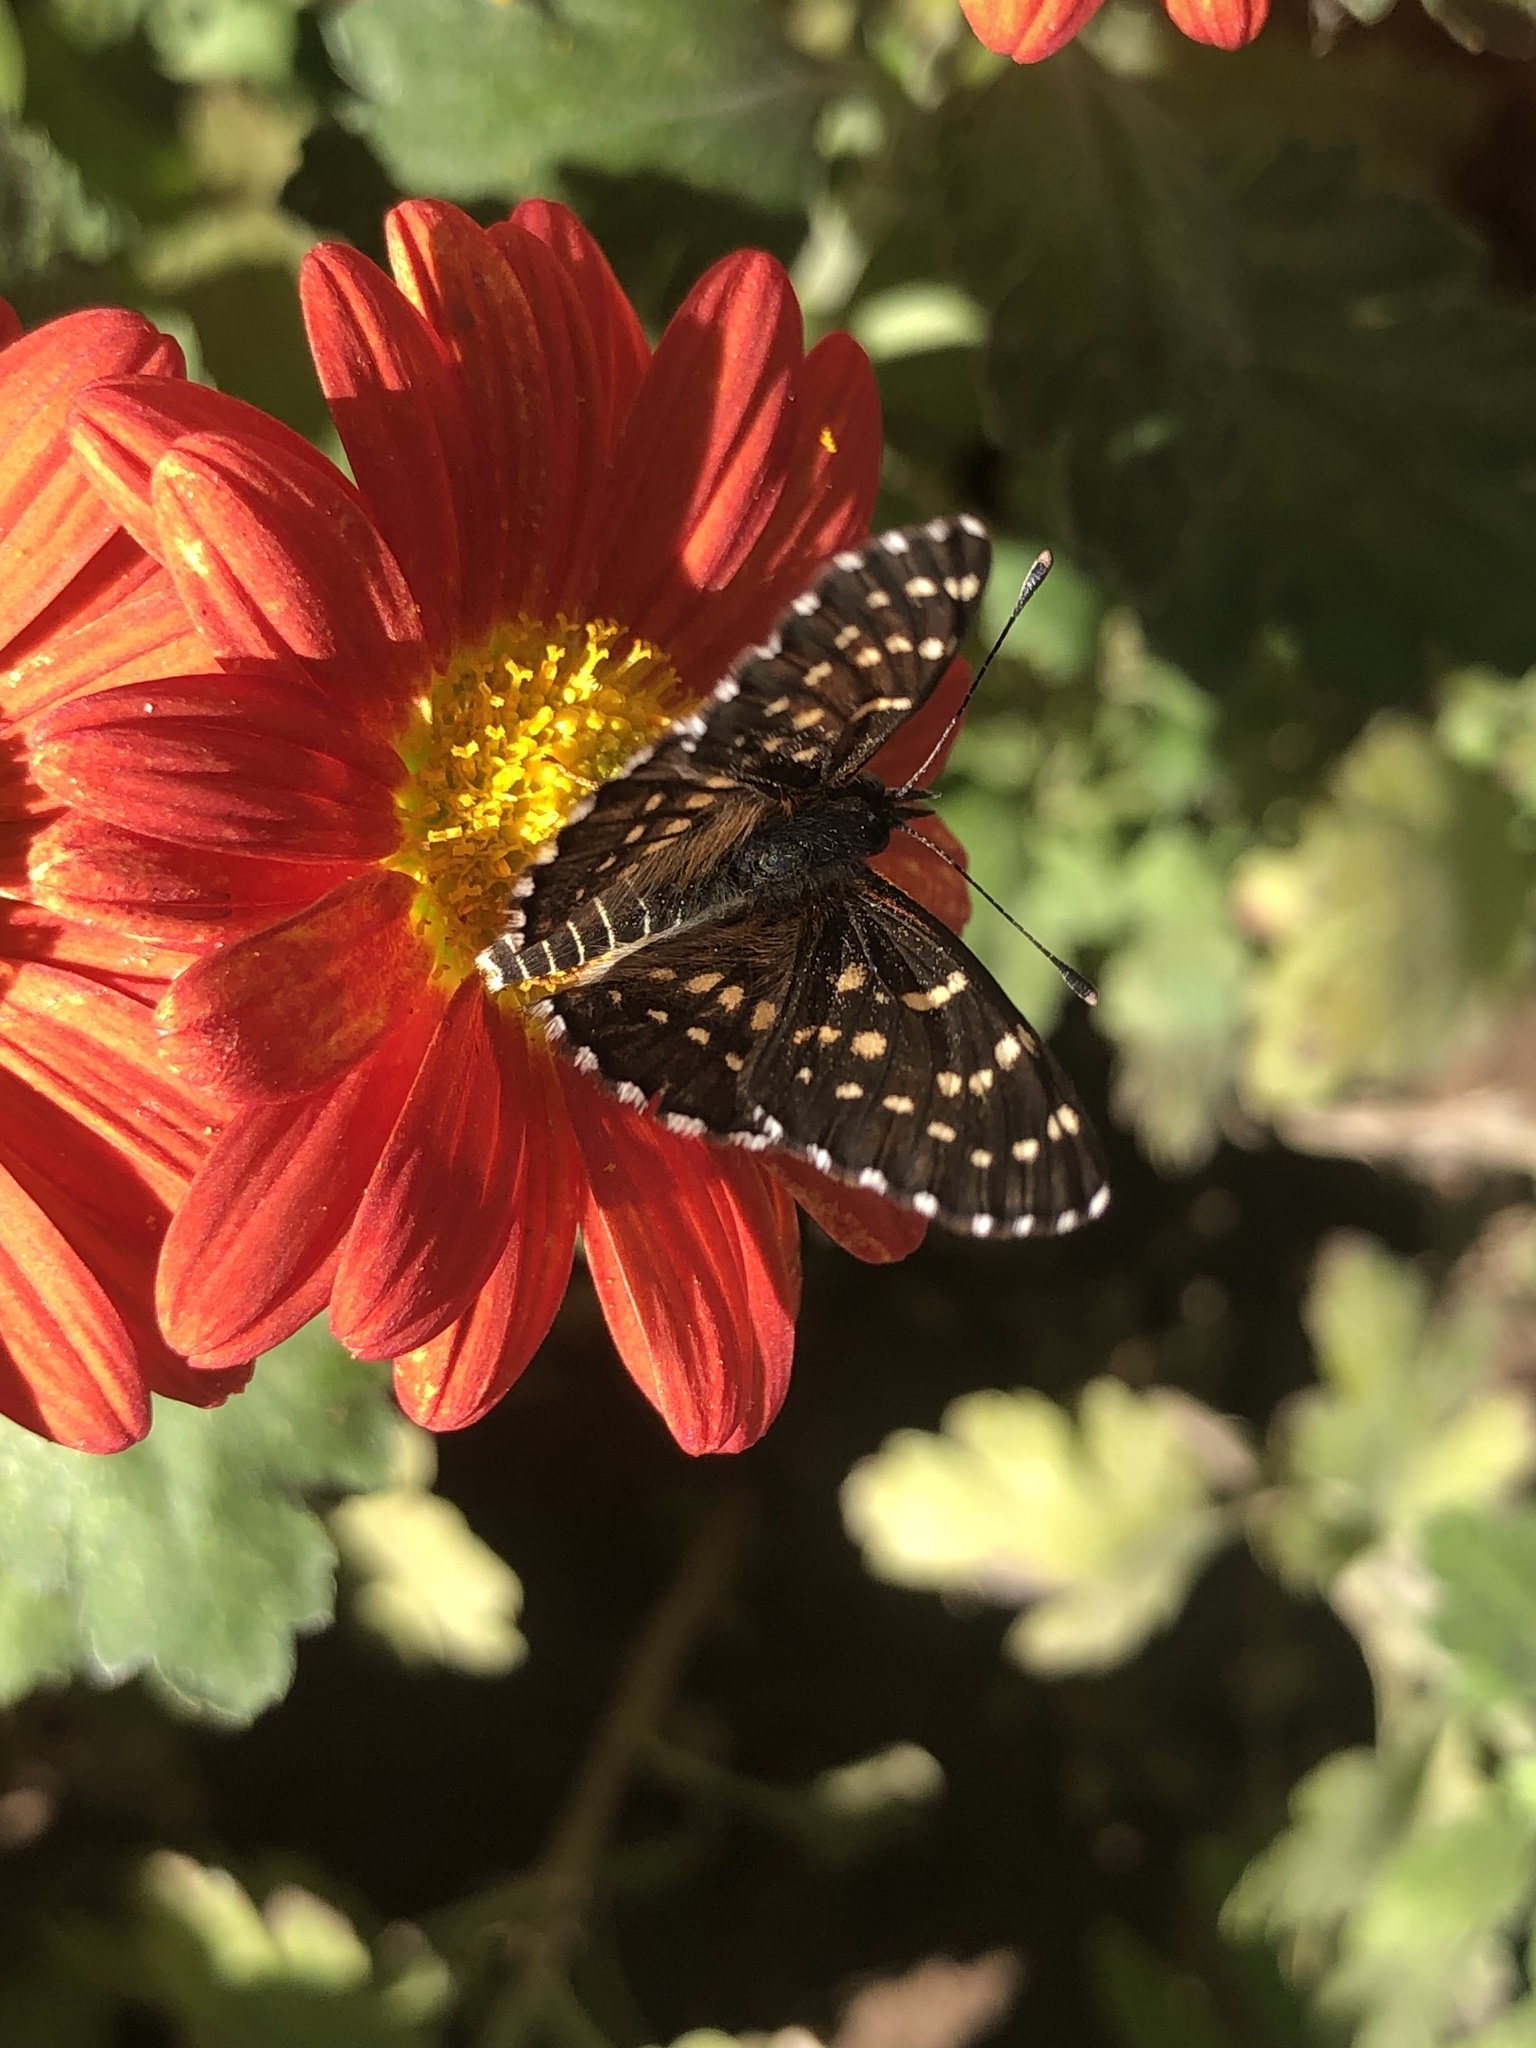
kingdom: Animalia
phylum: Arthropoda
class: Insecta
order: Lepidoptera
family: Nymphalidae
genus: Thessalia
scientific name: Thessalia leanira
